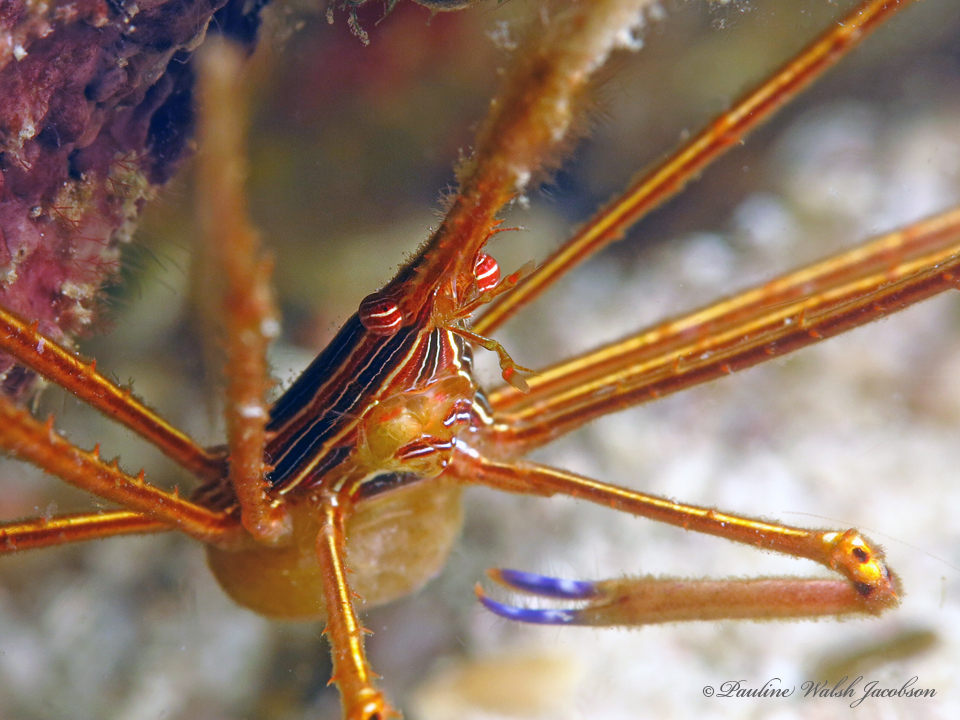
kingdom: Animalia
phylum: Arthropoda
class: Malacostraca
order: Decapoda
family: Inachoididae
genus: Stenorhynchus
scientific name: Stenorhynchus seticornis
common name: Arrow crab
